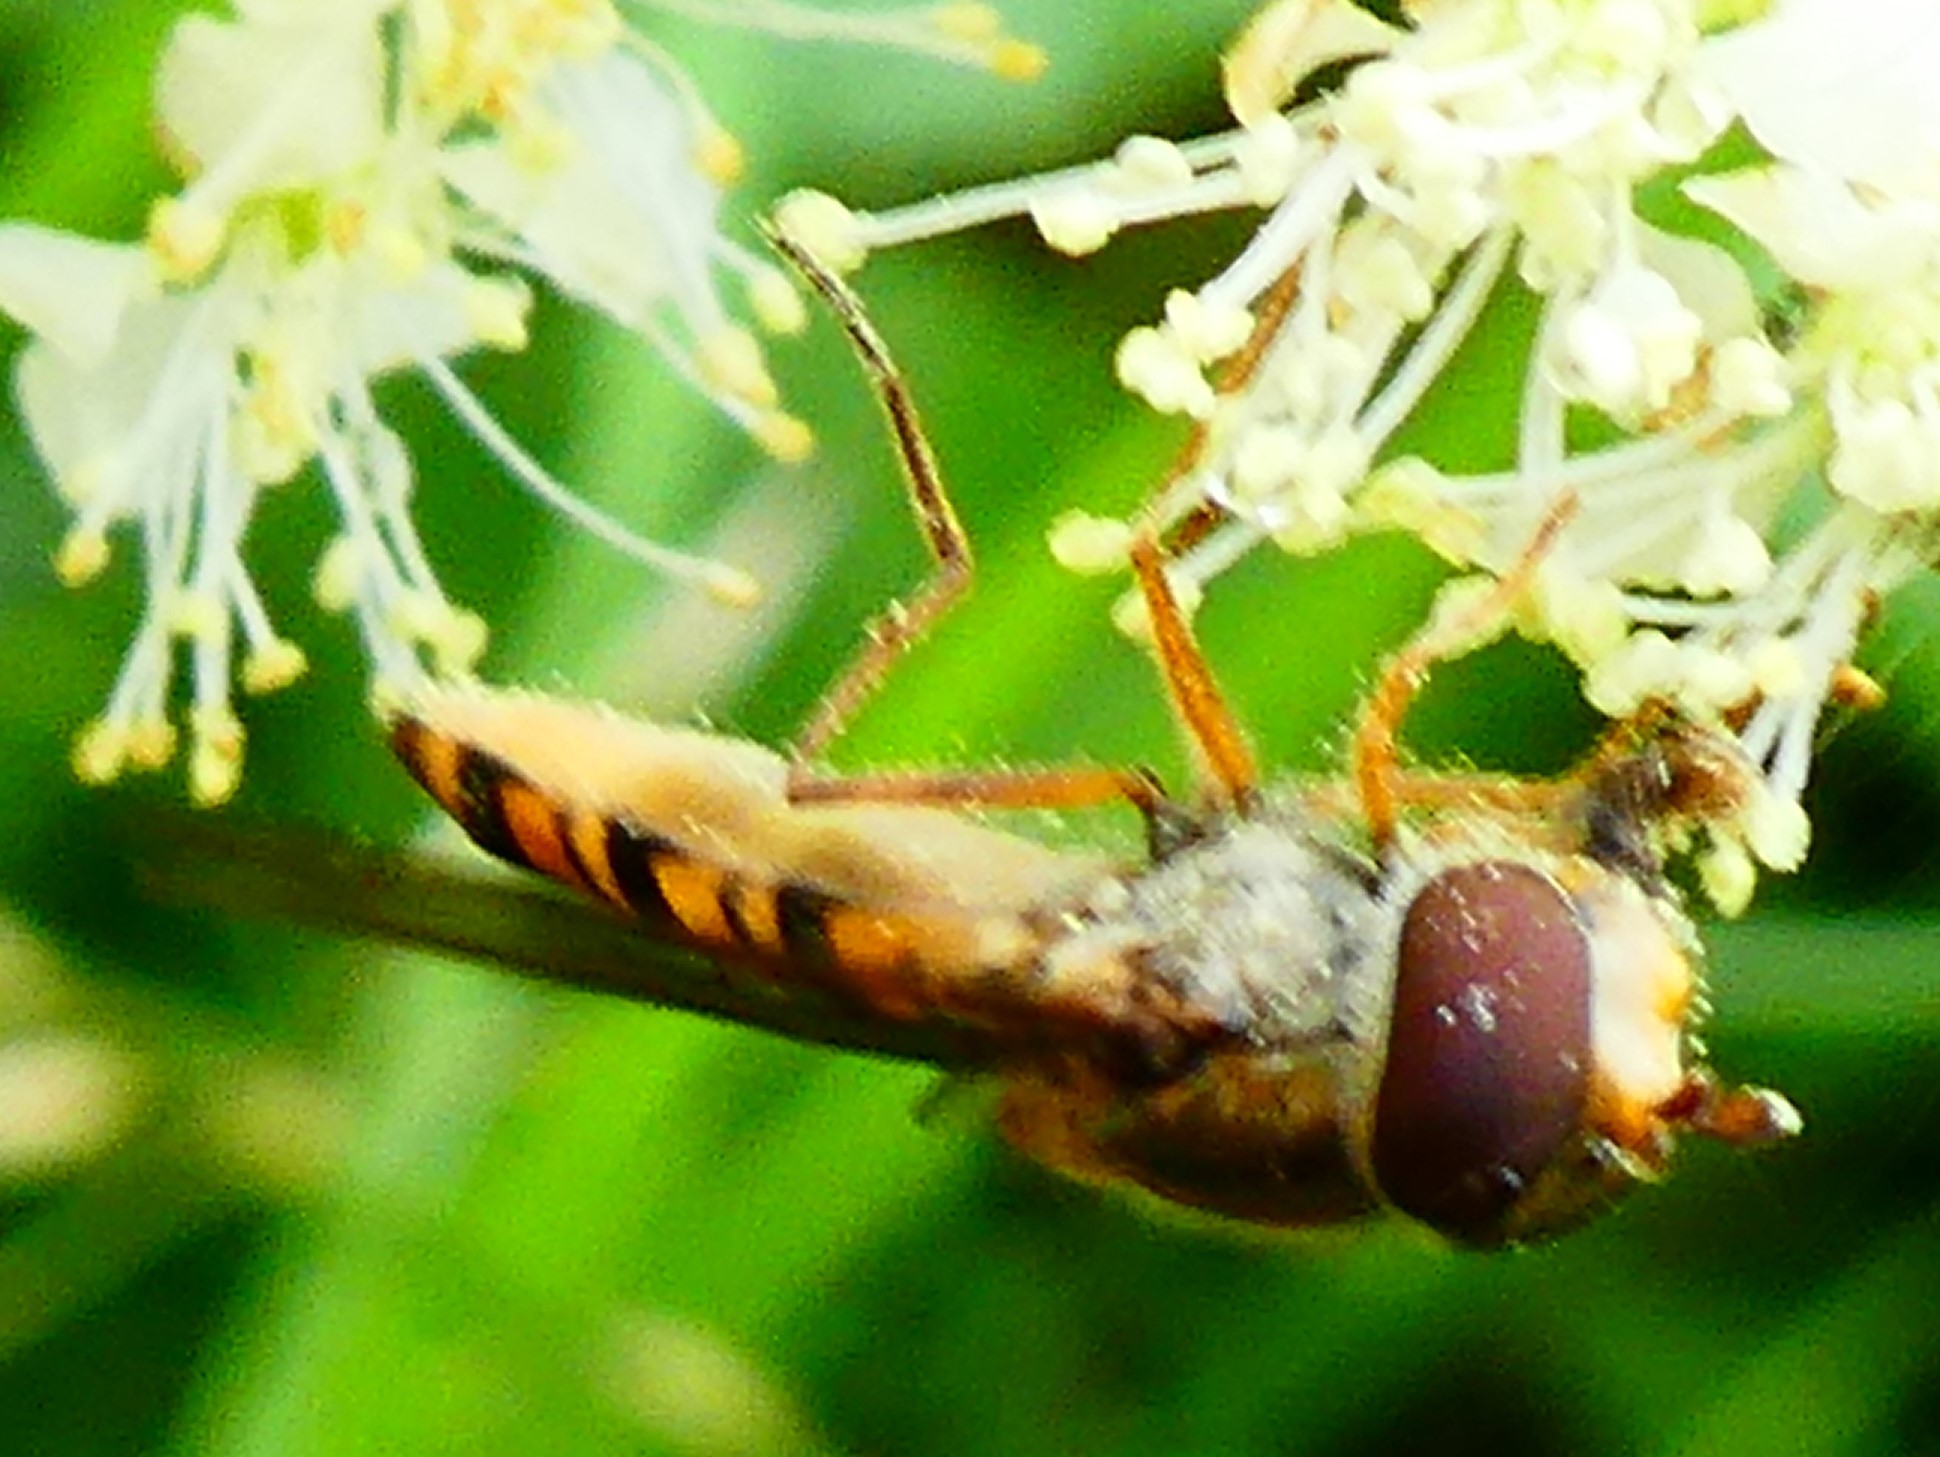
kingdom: Animalia
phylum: Arthropoda
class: Insecta
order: Diptera
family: Syrphidae
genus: Episyrphus
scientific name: Episyrphus balteatus
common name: Marmalade hoverfly
